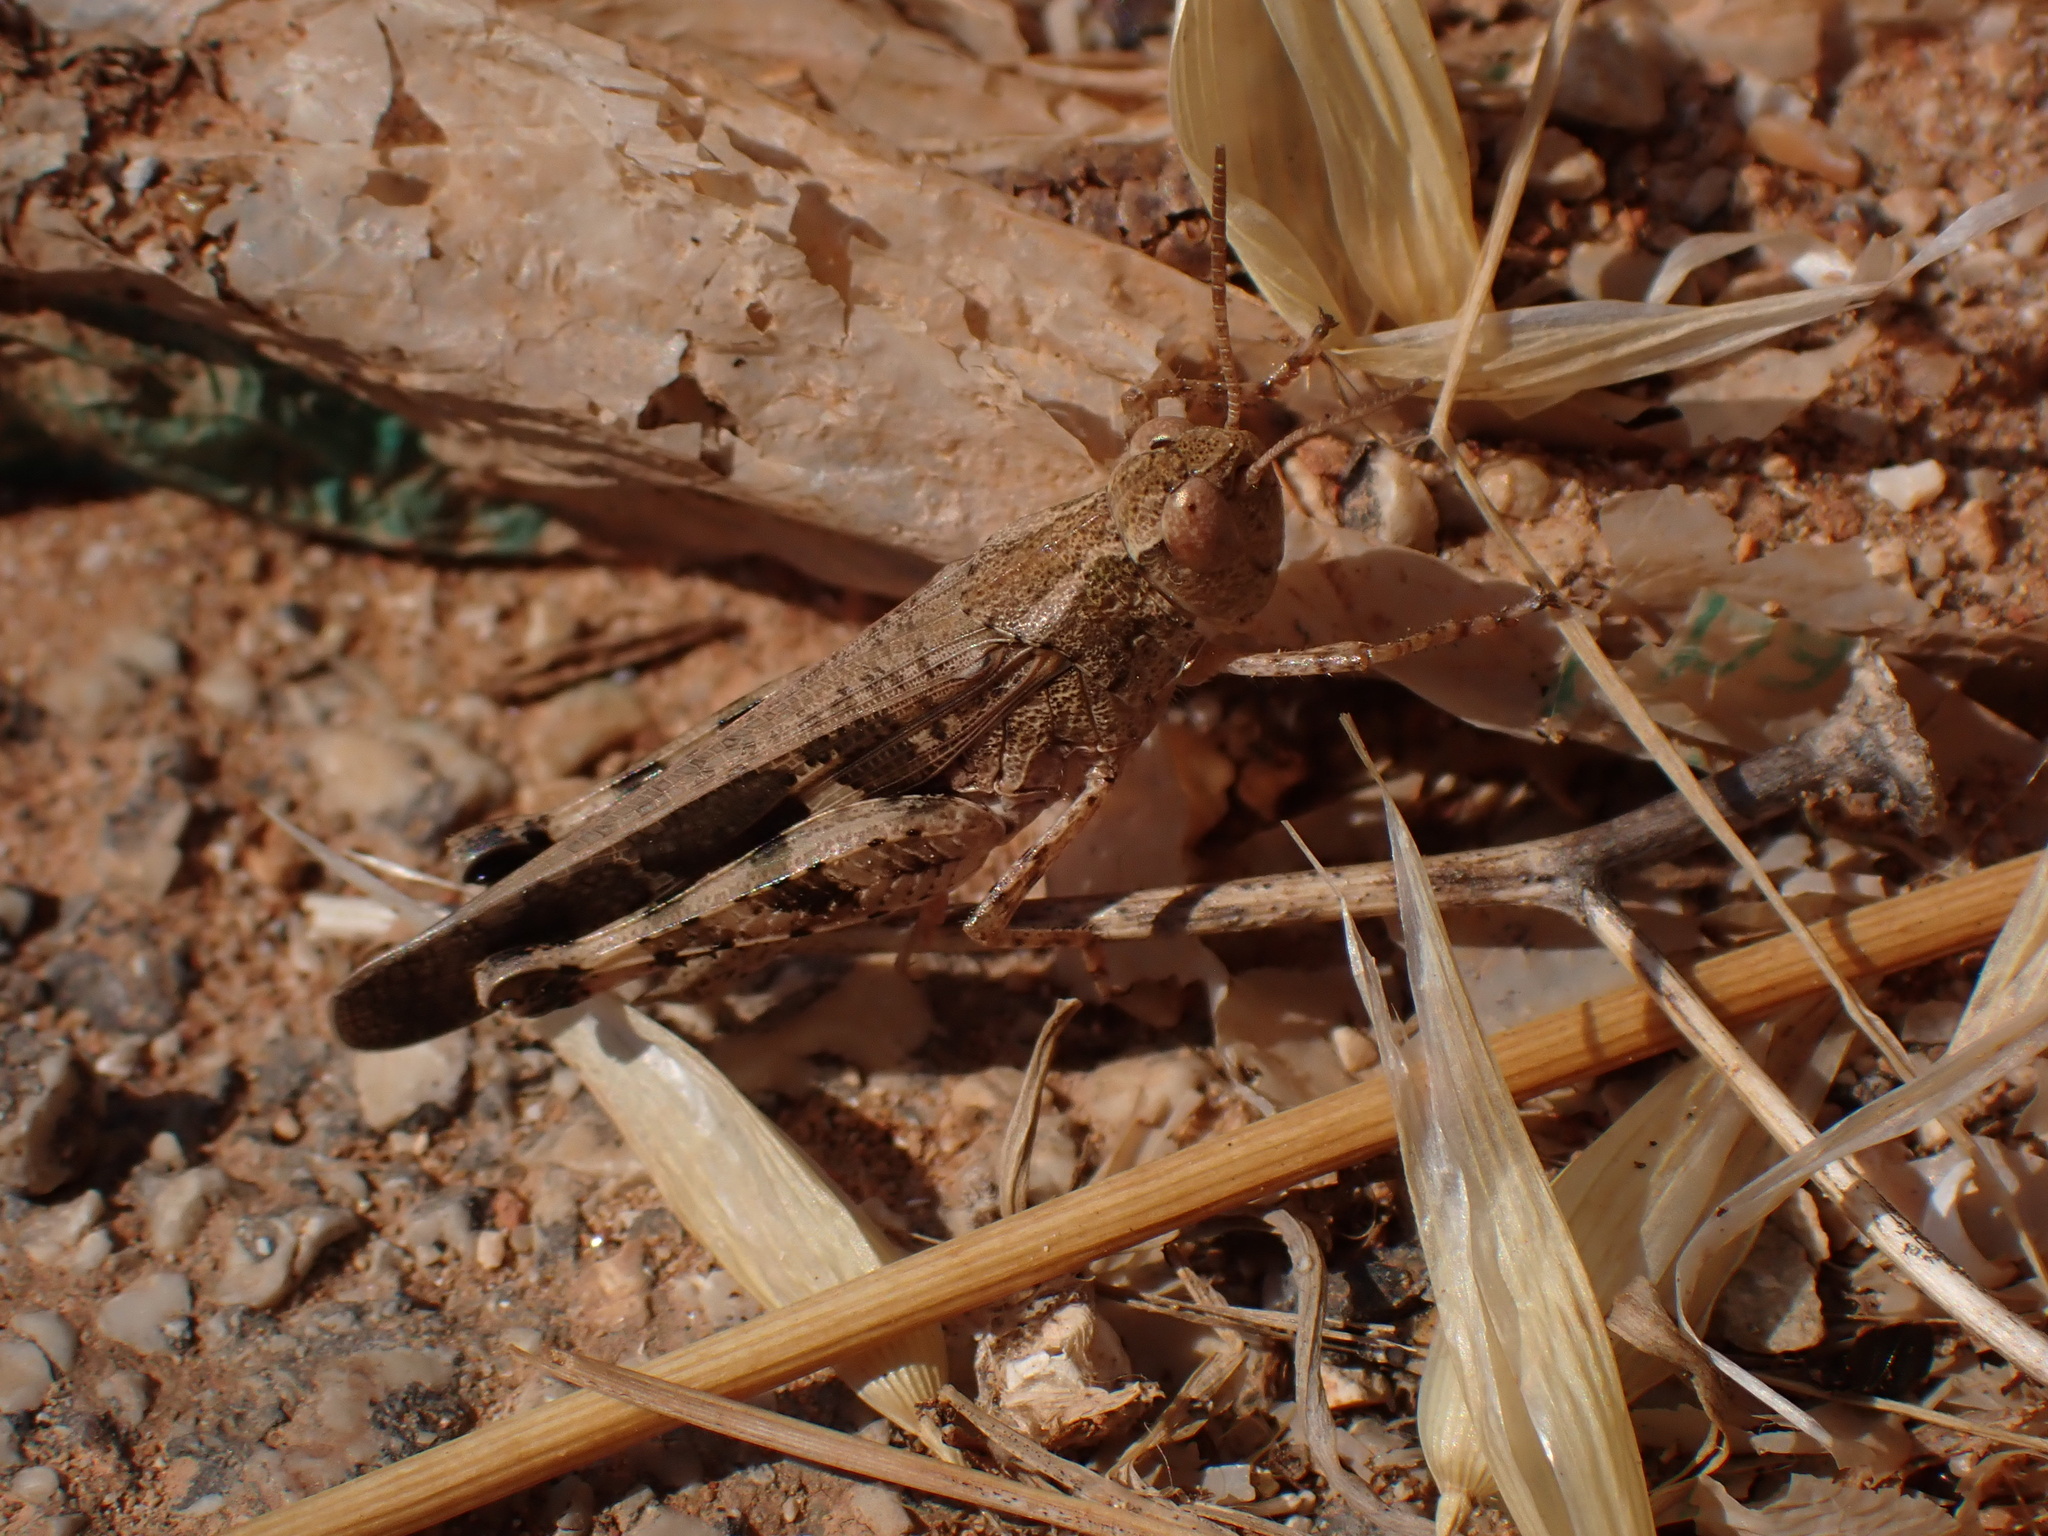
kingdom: Animalia
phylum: Arthropoda
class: Insecta
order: Orthoptera
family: Acrididae
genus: Aiolopus
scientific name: Aiolopus strepens
